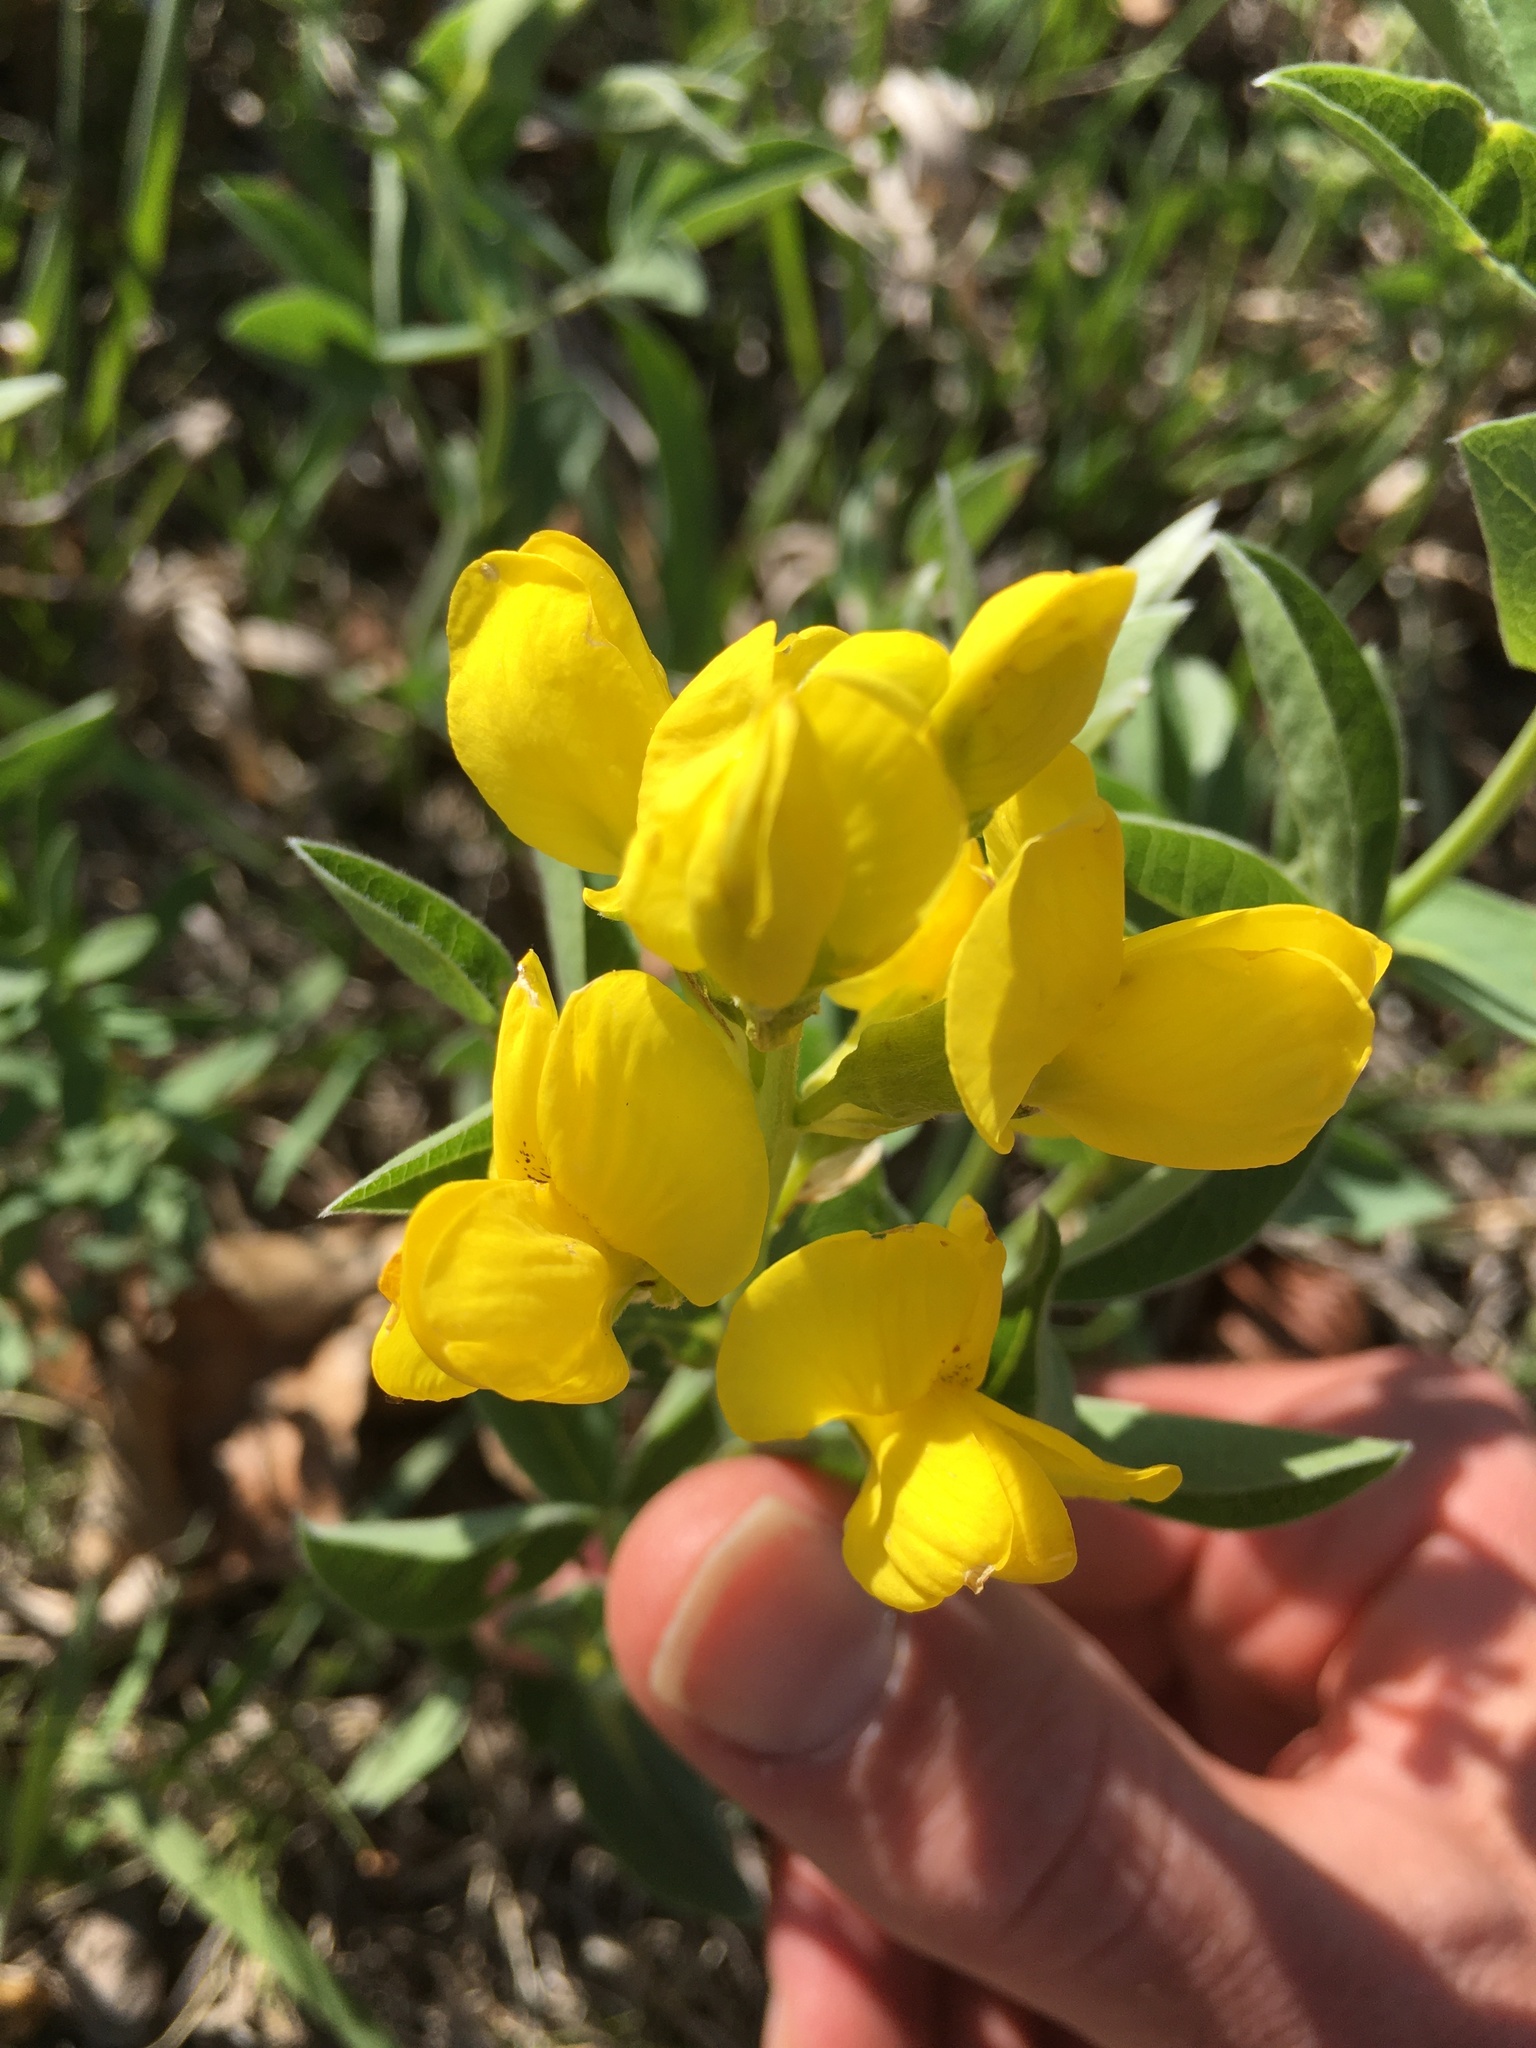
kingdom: Plantae
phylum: Tracheophyta
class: Magnoliopsida
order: Fabales
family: Fabaceae
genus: Thermopsis
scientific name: Thermopsis rhombifolia
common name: Circle-pod-pea
